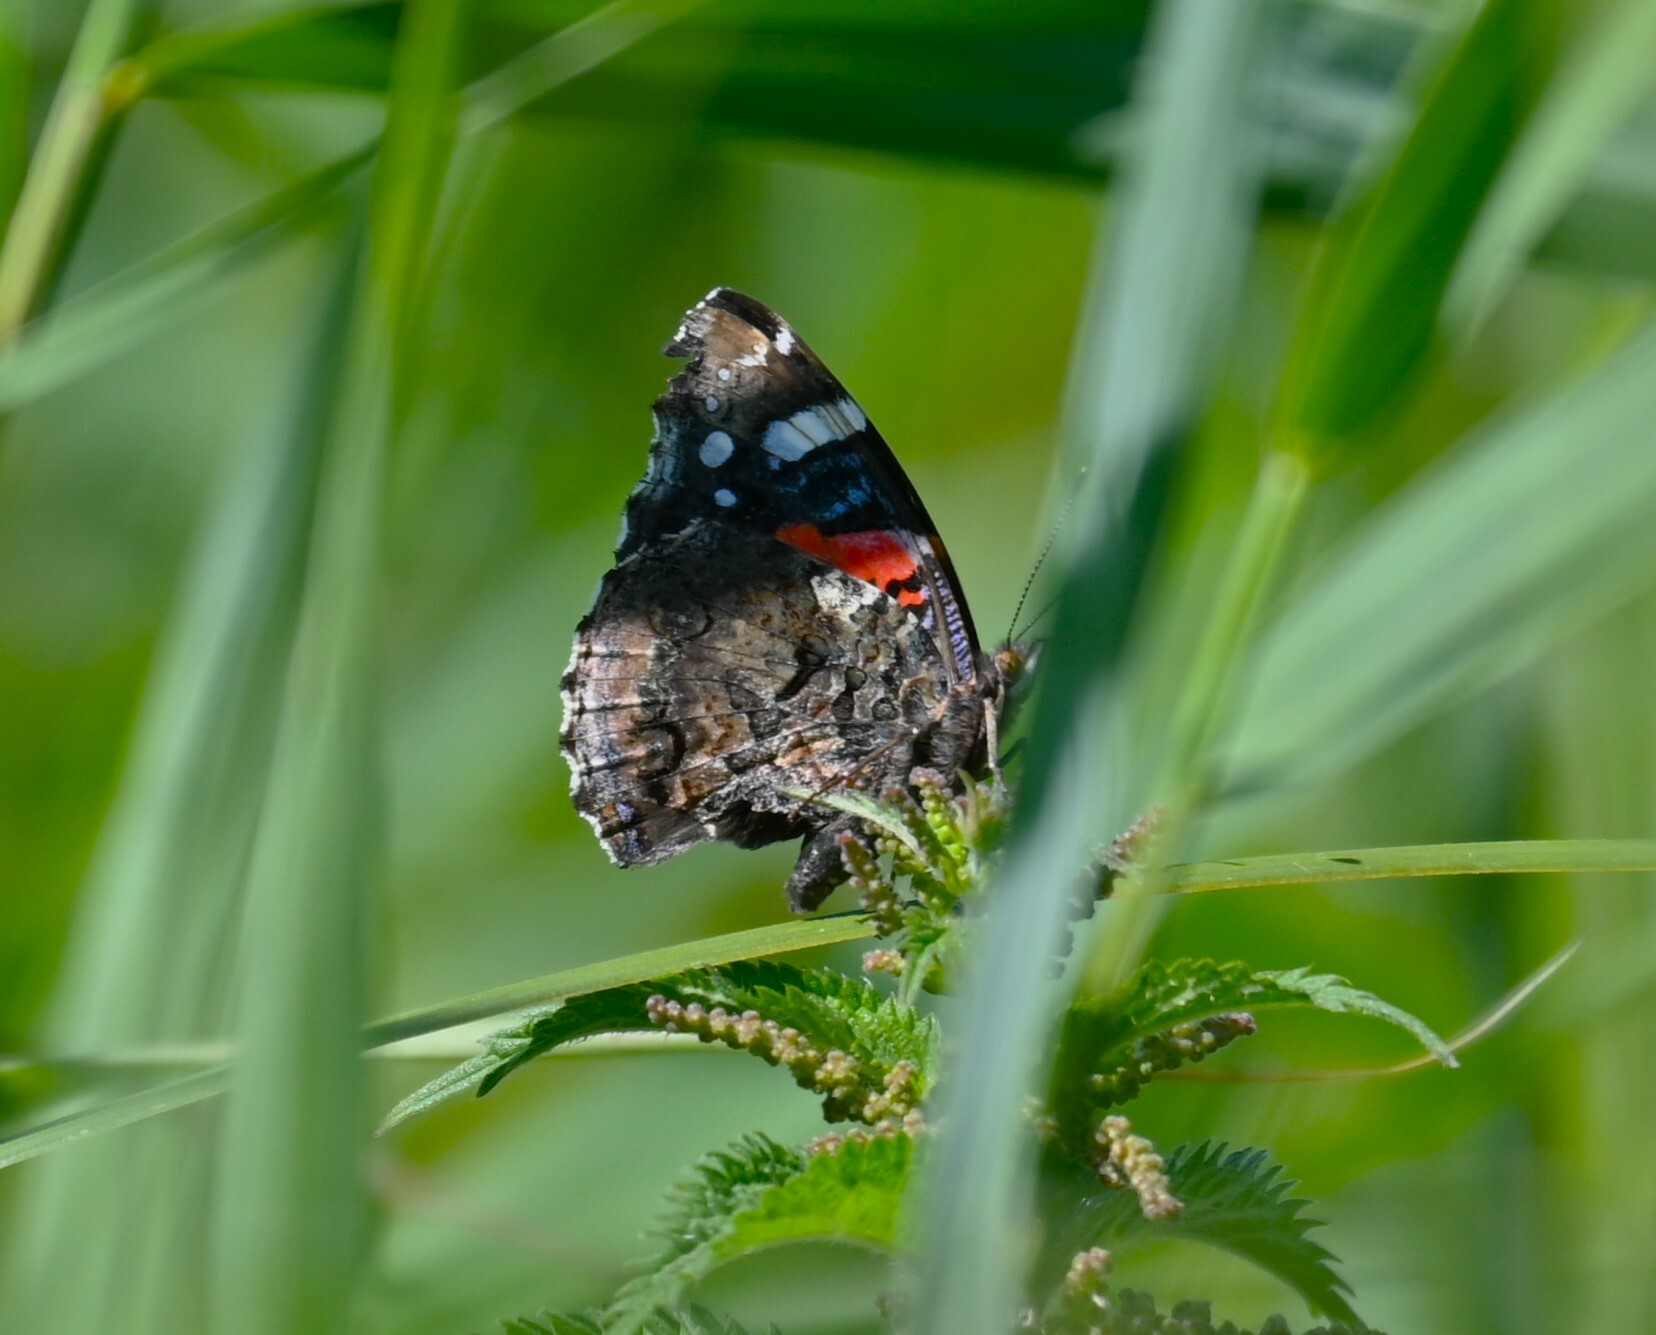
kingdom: Animalia
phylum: Arthropoda
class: Insecta
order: Lepidoptera
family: Nymphalidae
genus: Vanessa
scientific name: Vanessa atalanta
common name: Red admiral
